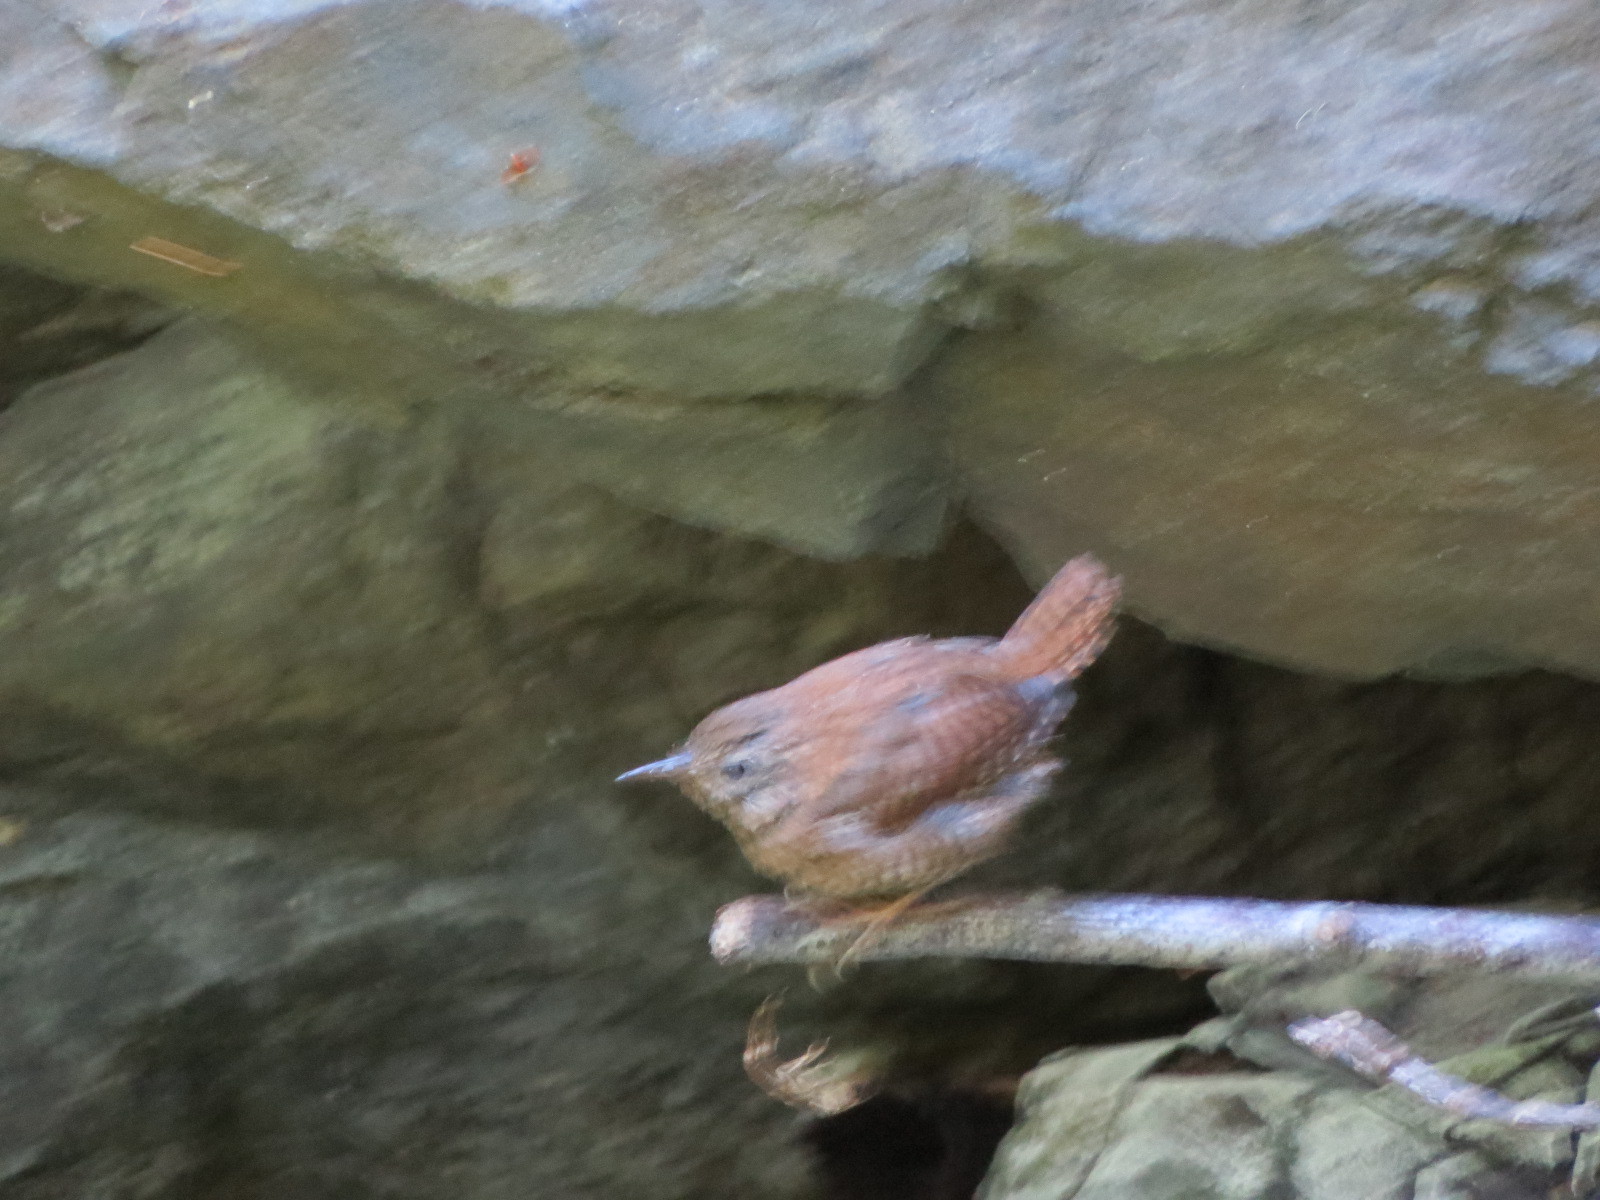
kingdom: Animalia
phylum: Chordata
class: Aves
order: Passeriformes
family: Troglodytidae
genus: Troglodytes
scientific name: Troglodytes pacificus
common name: Pacific wren
